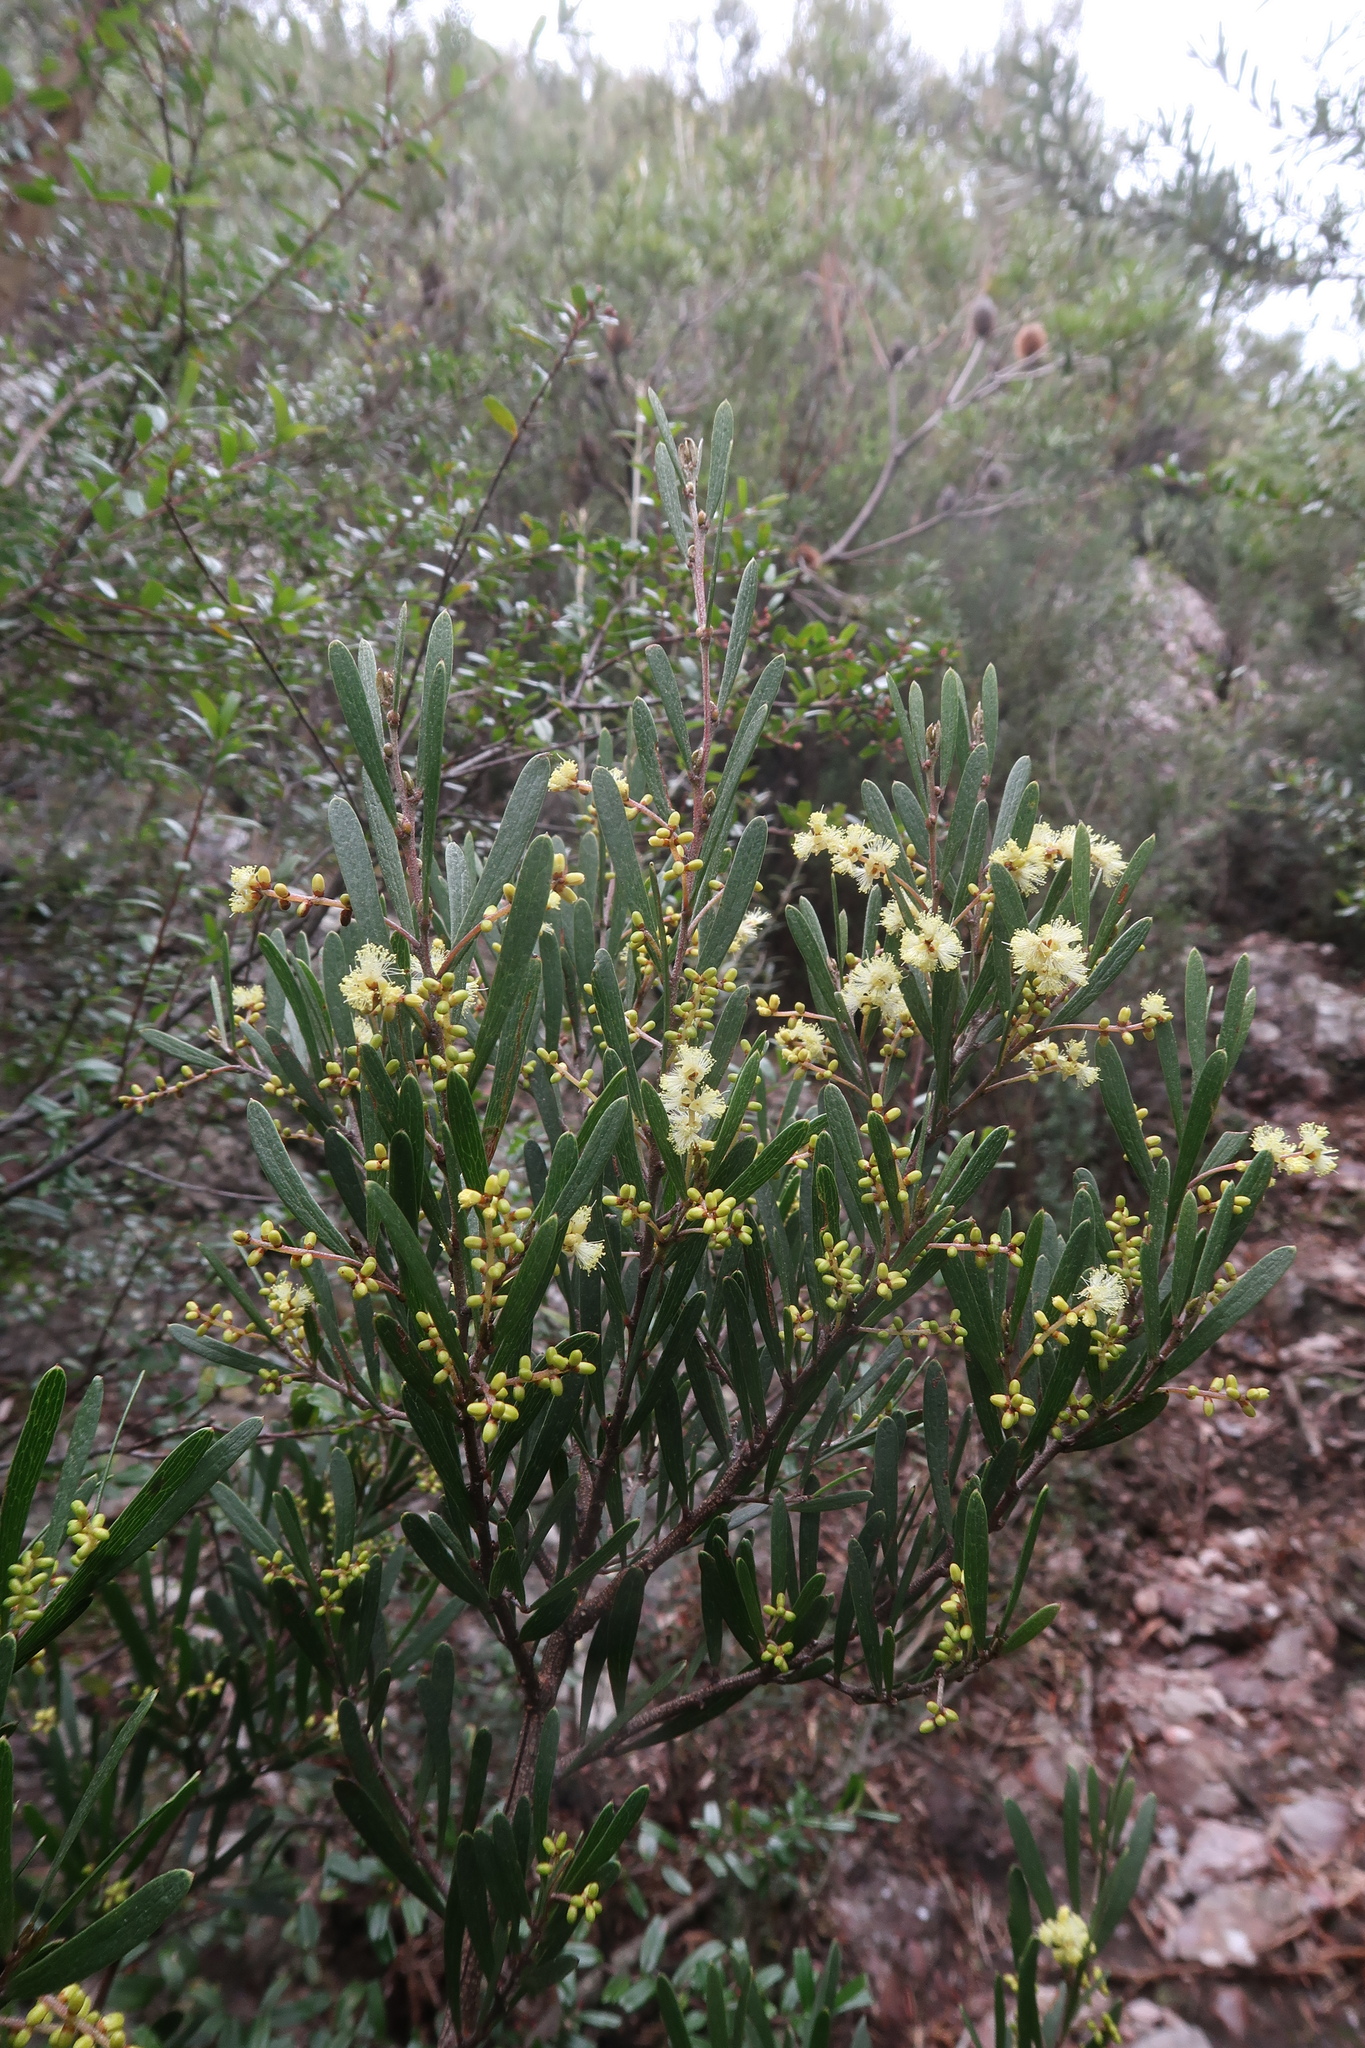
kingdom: Plantae
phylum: Tracheophyta
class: Magnoliopsida
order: Fabales
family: Fabaceae
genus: Acacia
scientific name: Acacia mucronata
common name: Variable sallow wattle
